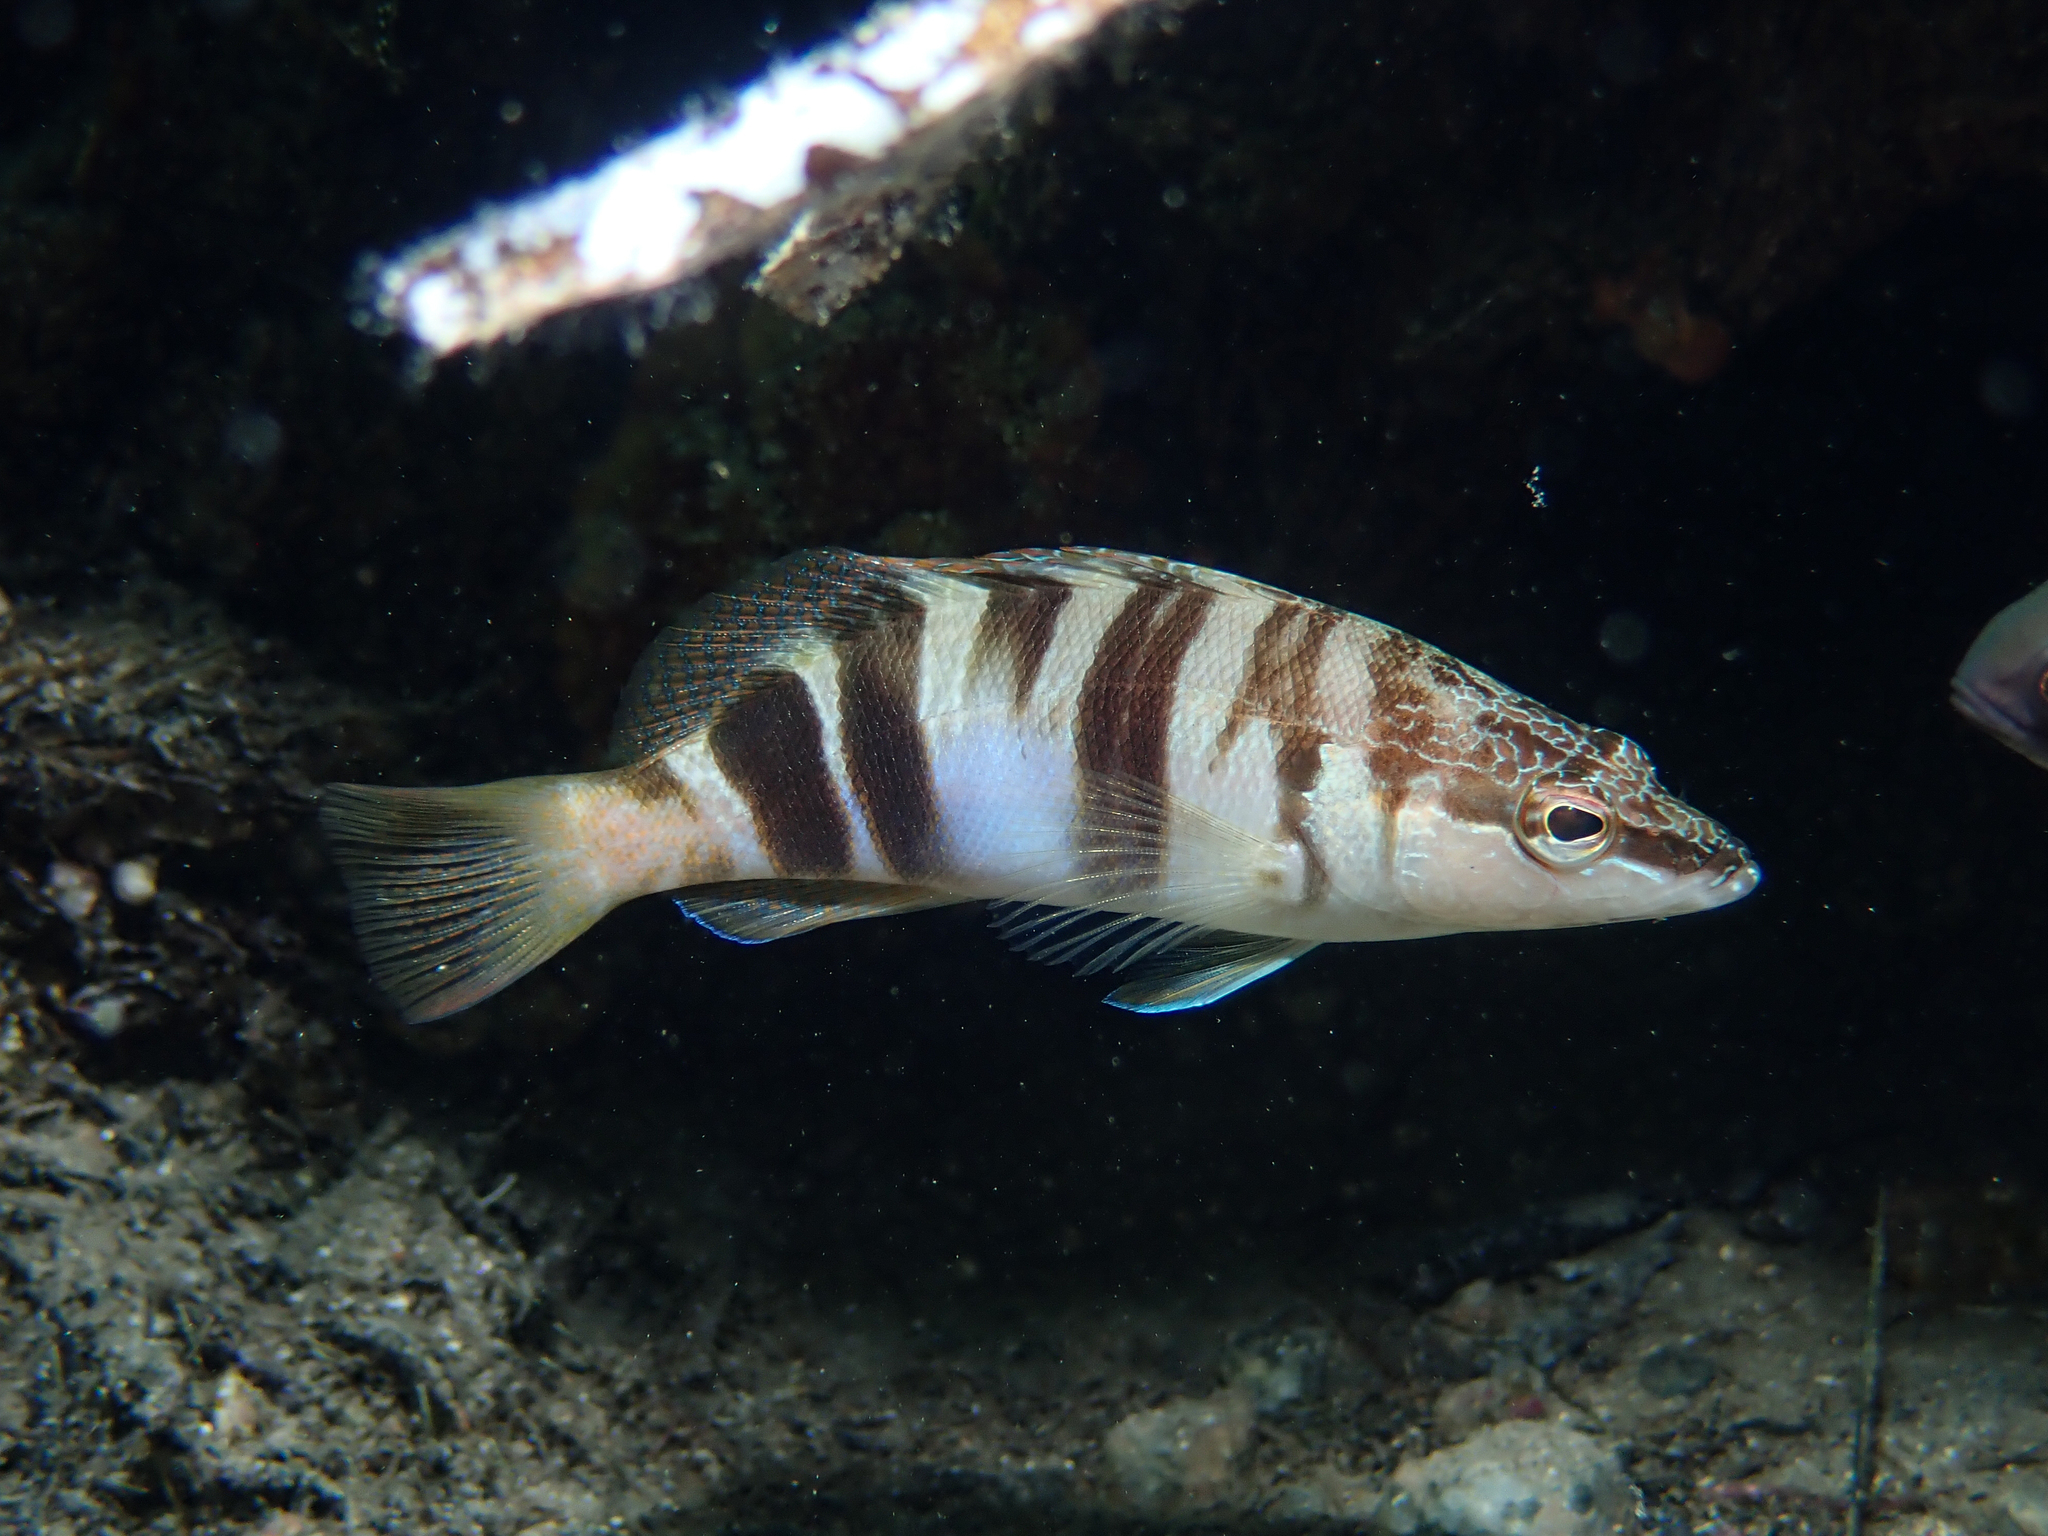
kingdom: Animalia
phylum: Chordata
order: Perciformes
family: Serranidae
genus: Serranus
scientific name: Serranus scriba
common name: Painted comber
